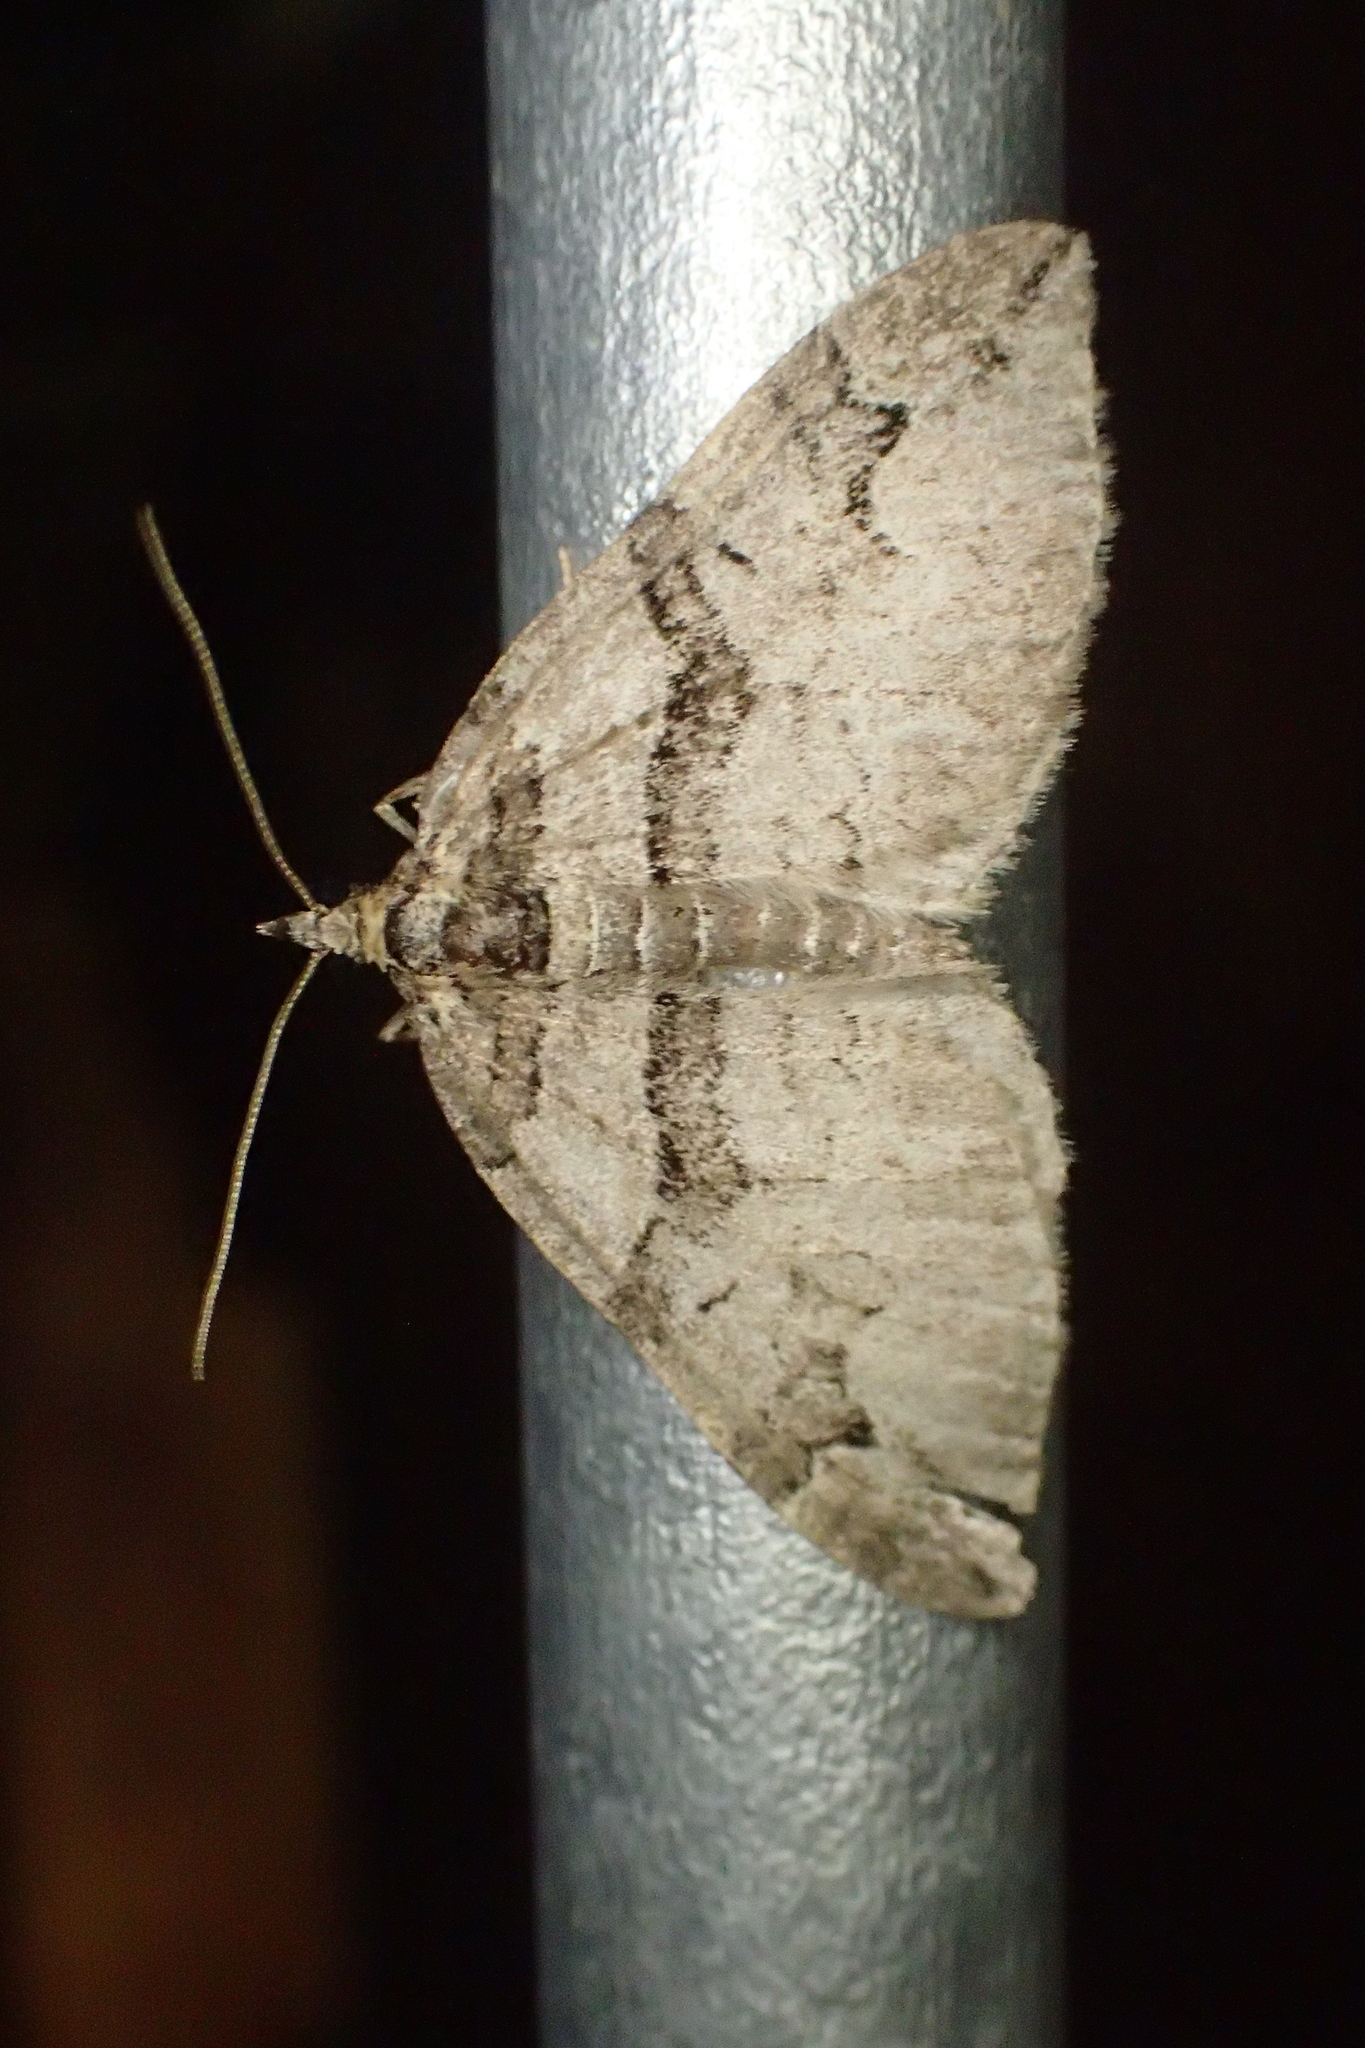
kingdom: Animalia
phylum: Arthropoda
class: Insecta
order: Lepidoptera
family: Geometridae
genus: Pareulype
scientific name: Pareulype berberata
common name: Barberry carpet
